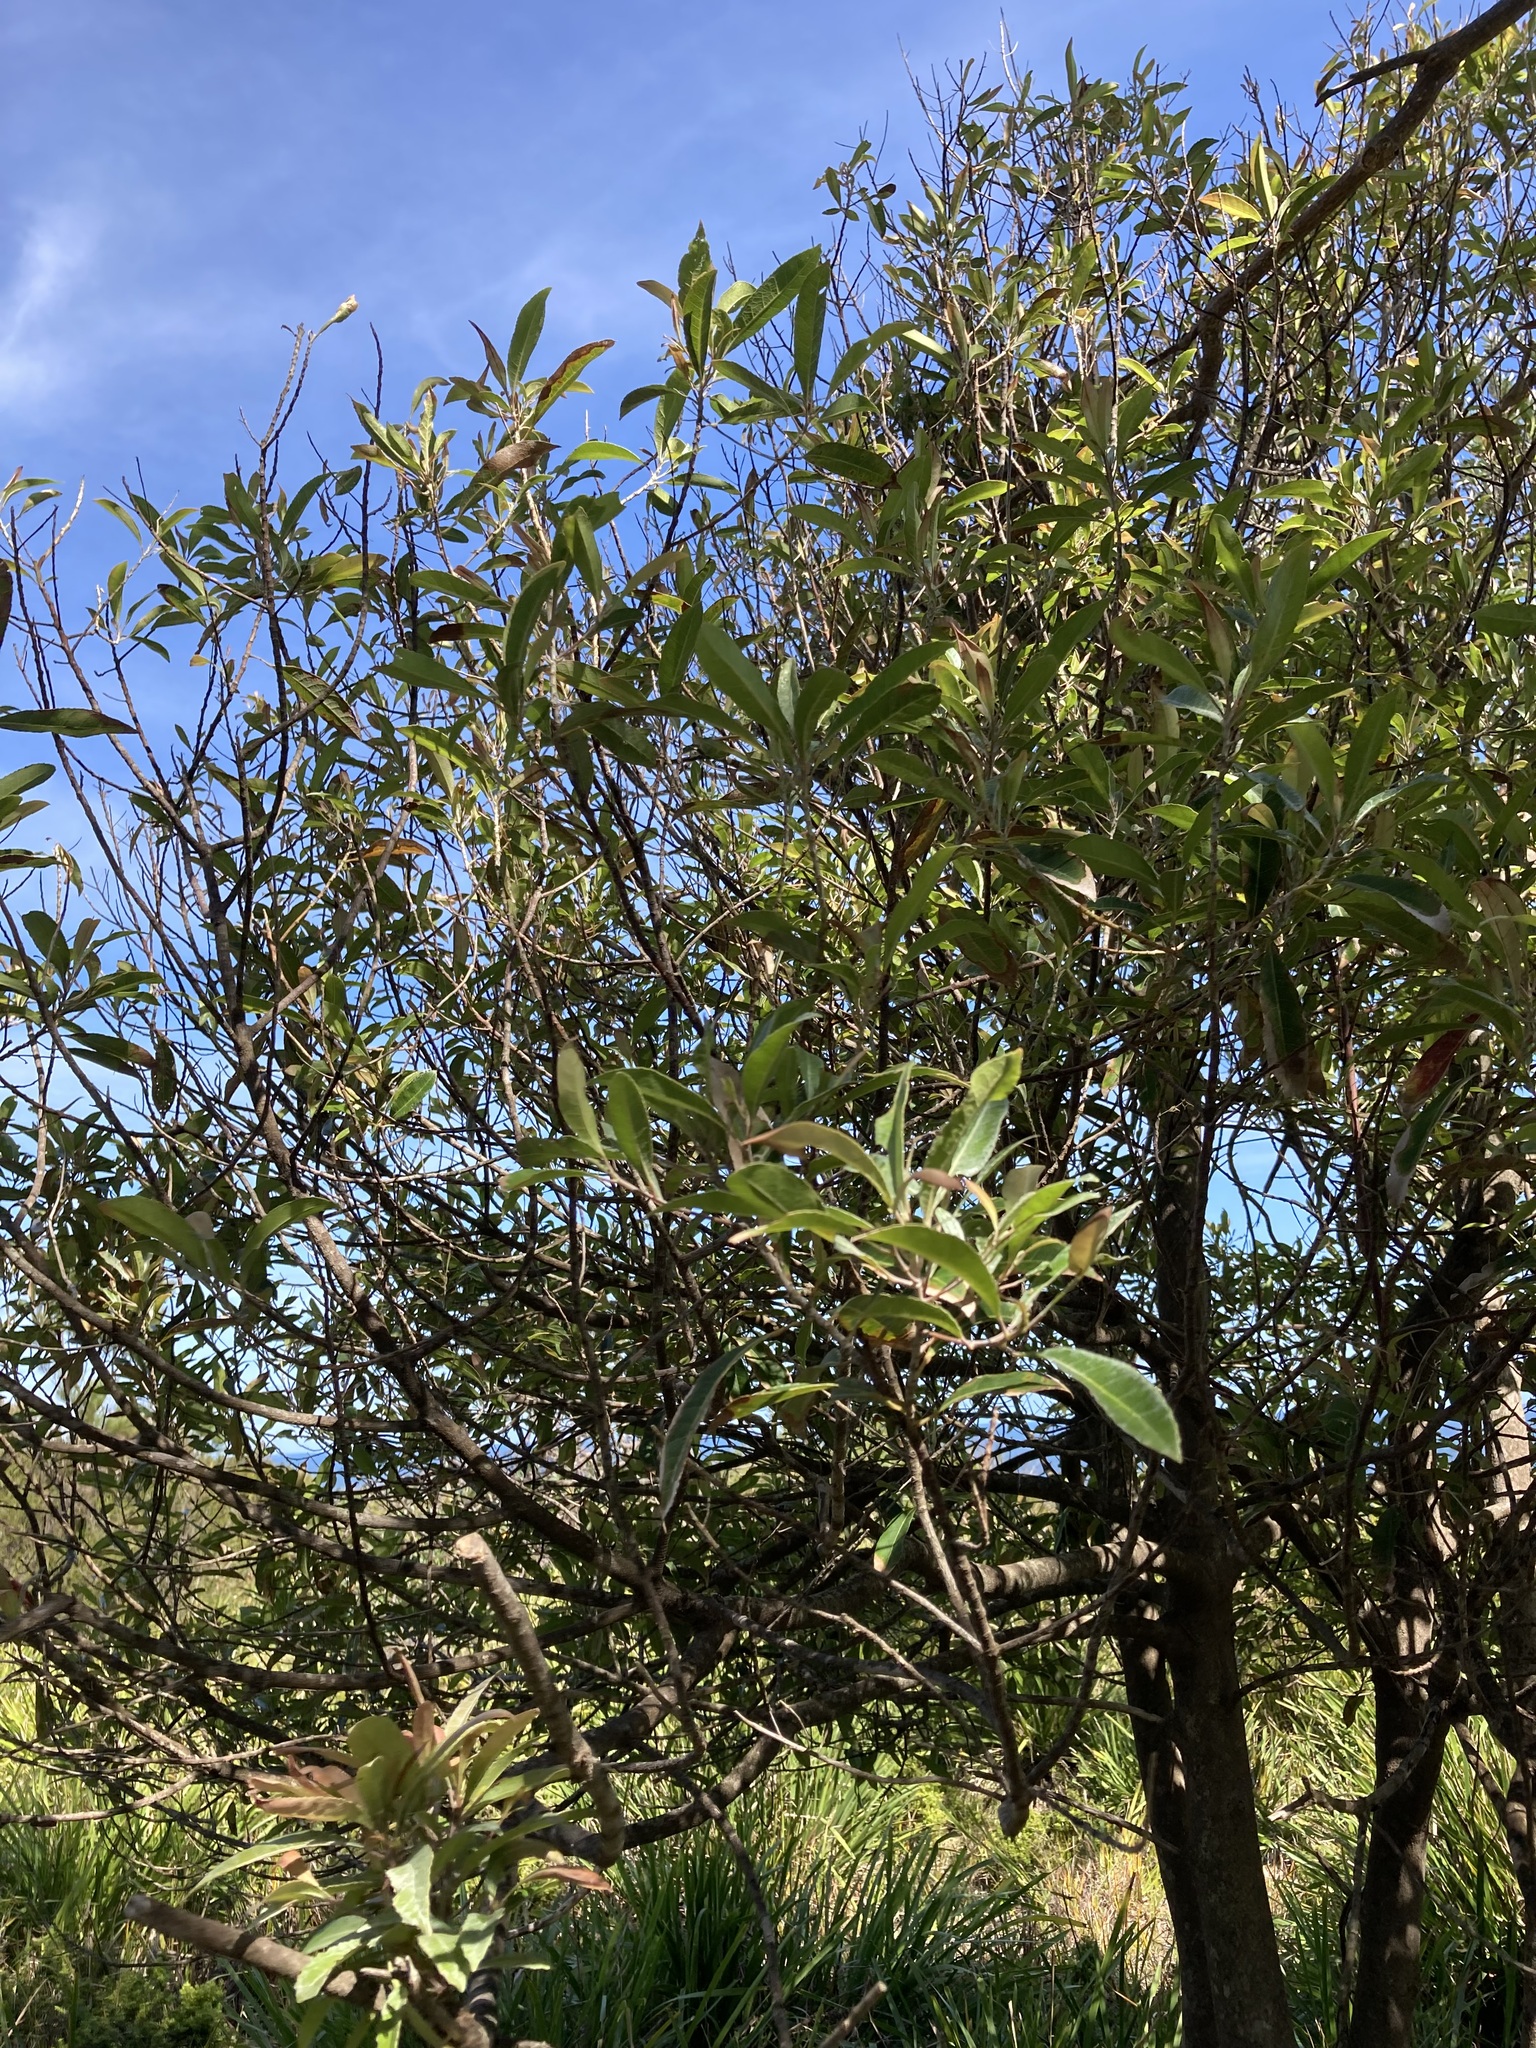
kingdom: Plantae
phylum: Tracheophyta
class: Magnoliopsida
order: Oxalidales
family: Elaeocarpaceae
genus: Elaeocarpus
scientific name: Elaeocarpus reticulatus
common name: Ash quandong
